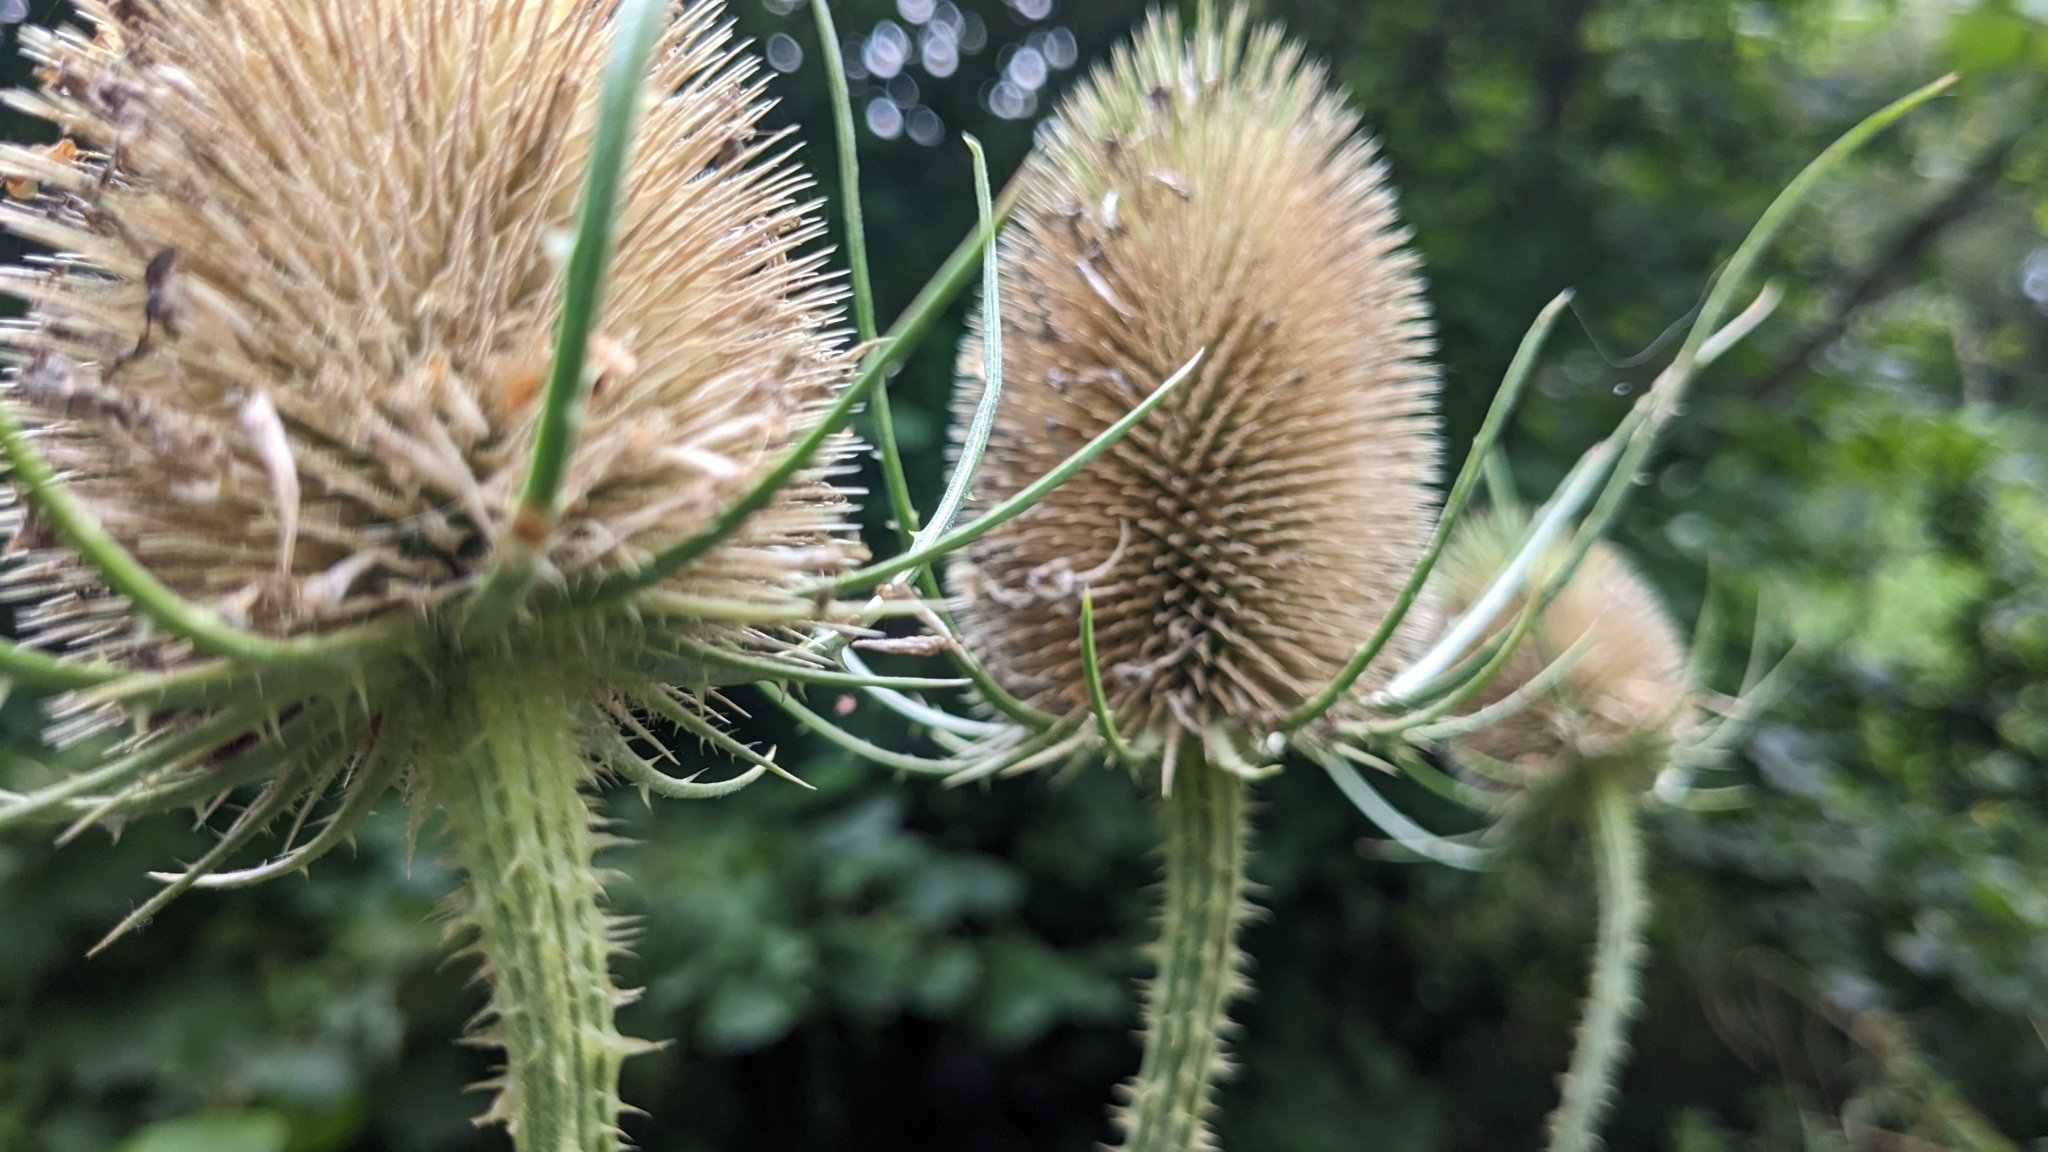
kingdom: Plantae
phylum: Tracheophyta
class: Magnoliopsida
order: Dipsacales
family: Caprifoliaceae
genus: Dipsacus
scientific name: Dipsacus fullonum
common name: Teasel
